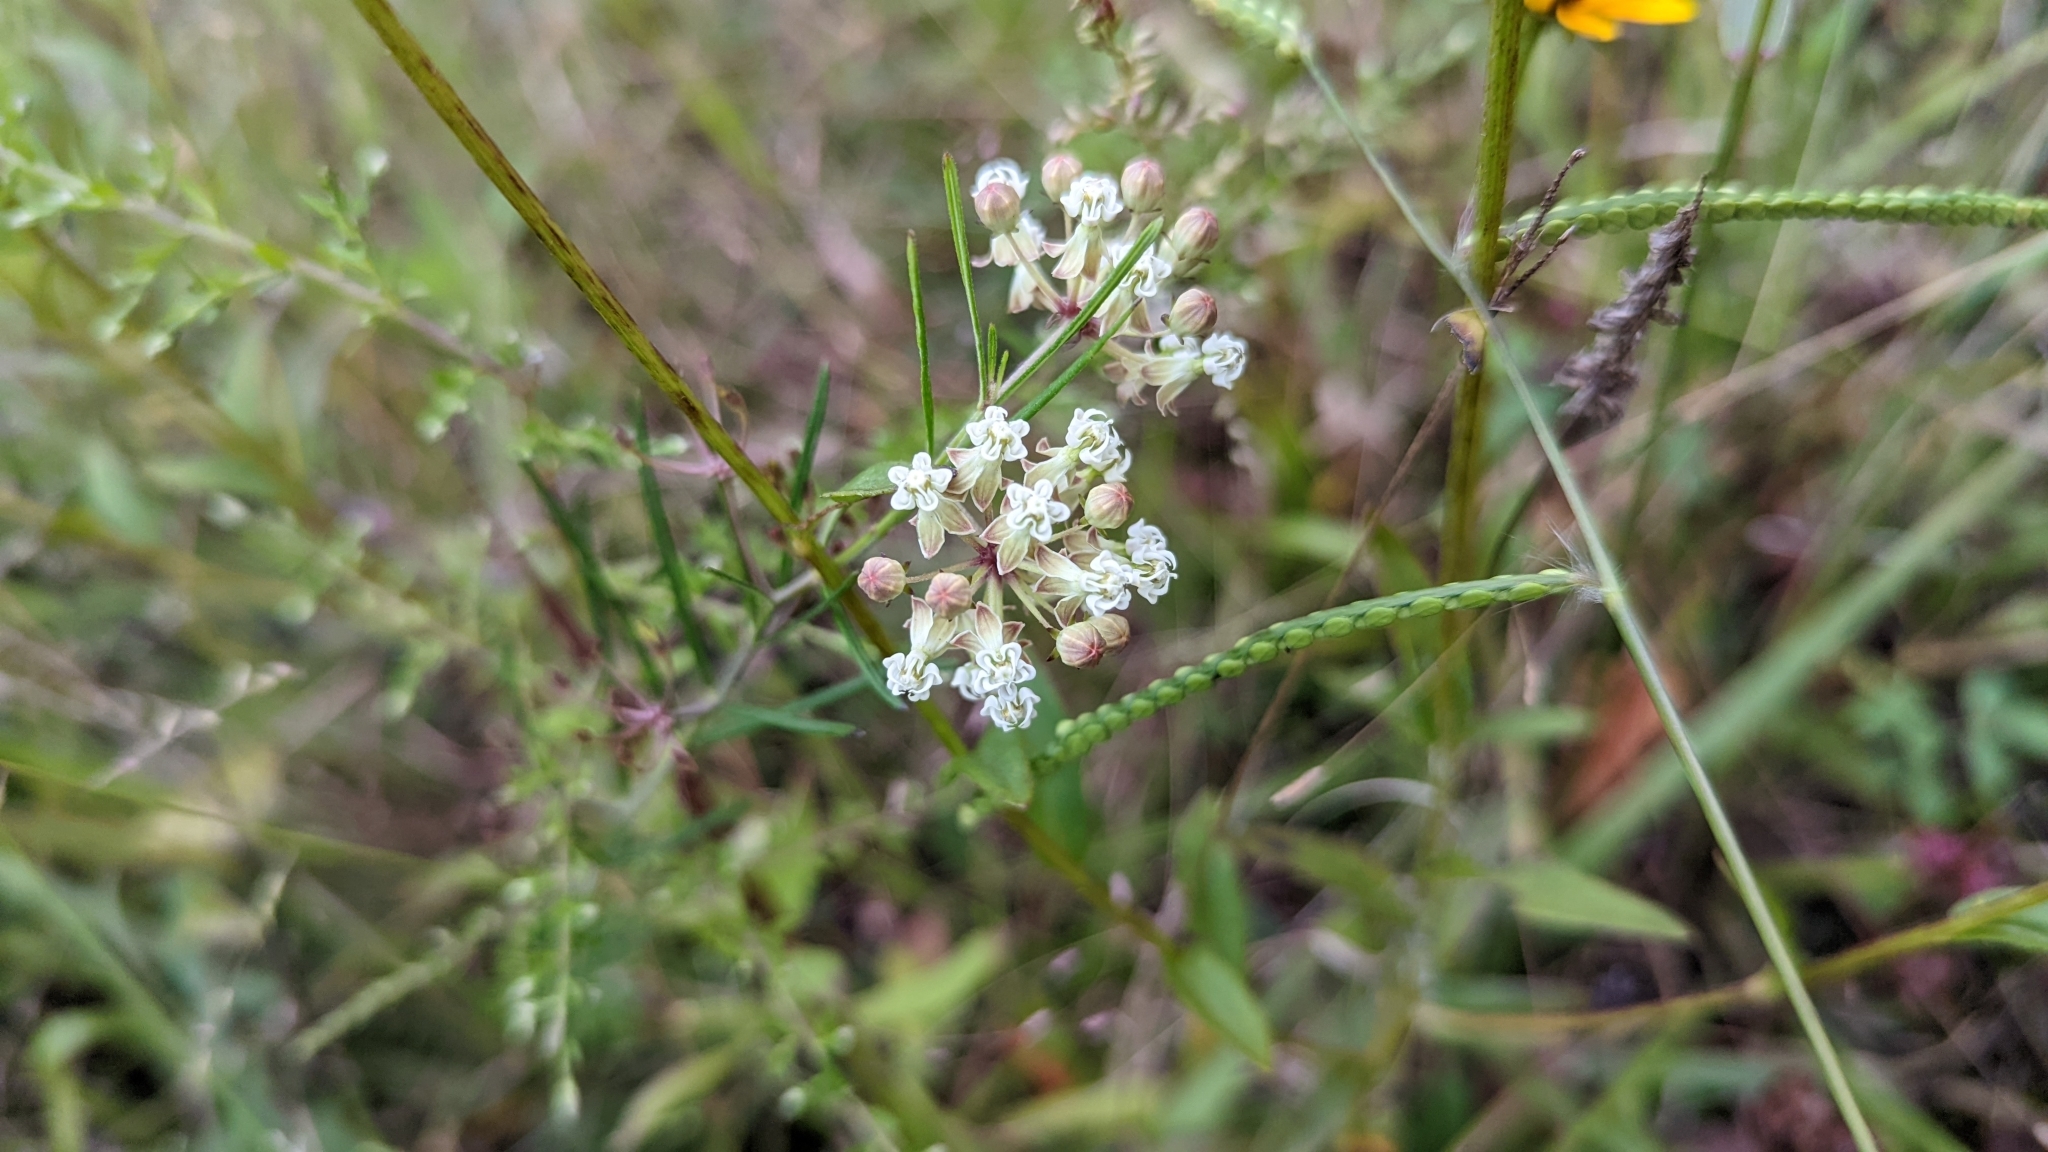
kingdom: Plantae
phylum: Tracheophyta
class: Magnoliopsida
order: Gentianales
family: Apocynaceae
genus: Asclepias
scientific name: Asclepias verticillata
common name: Eastern whorled milkweed
